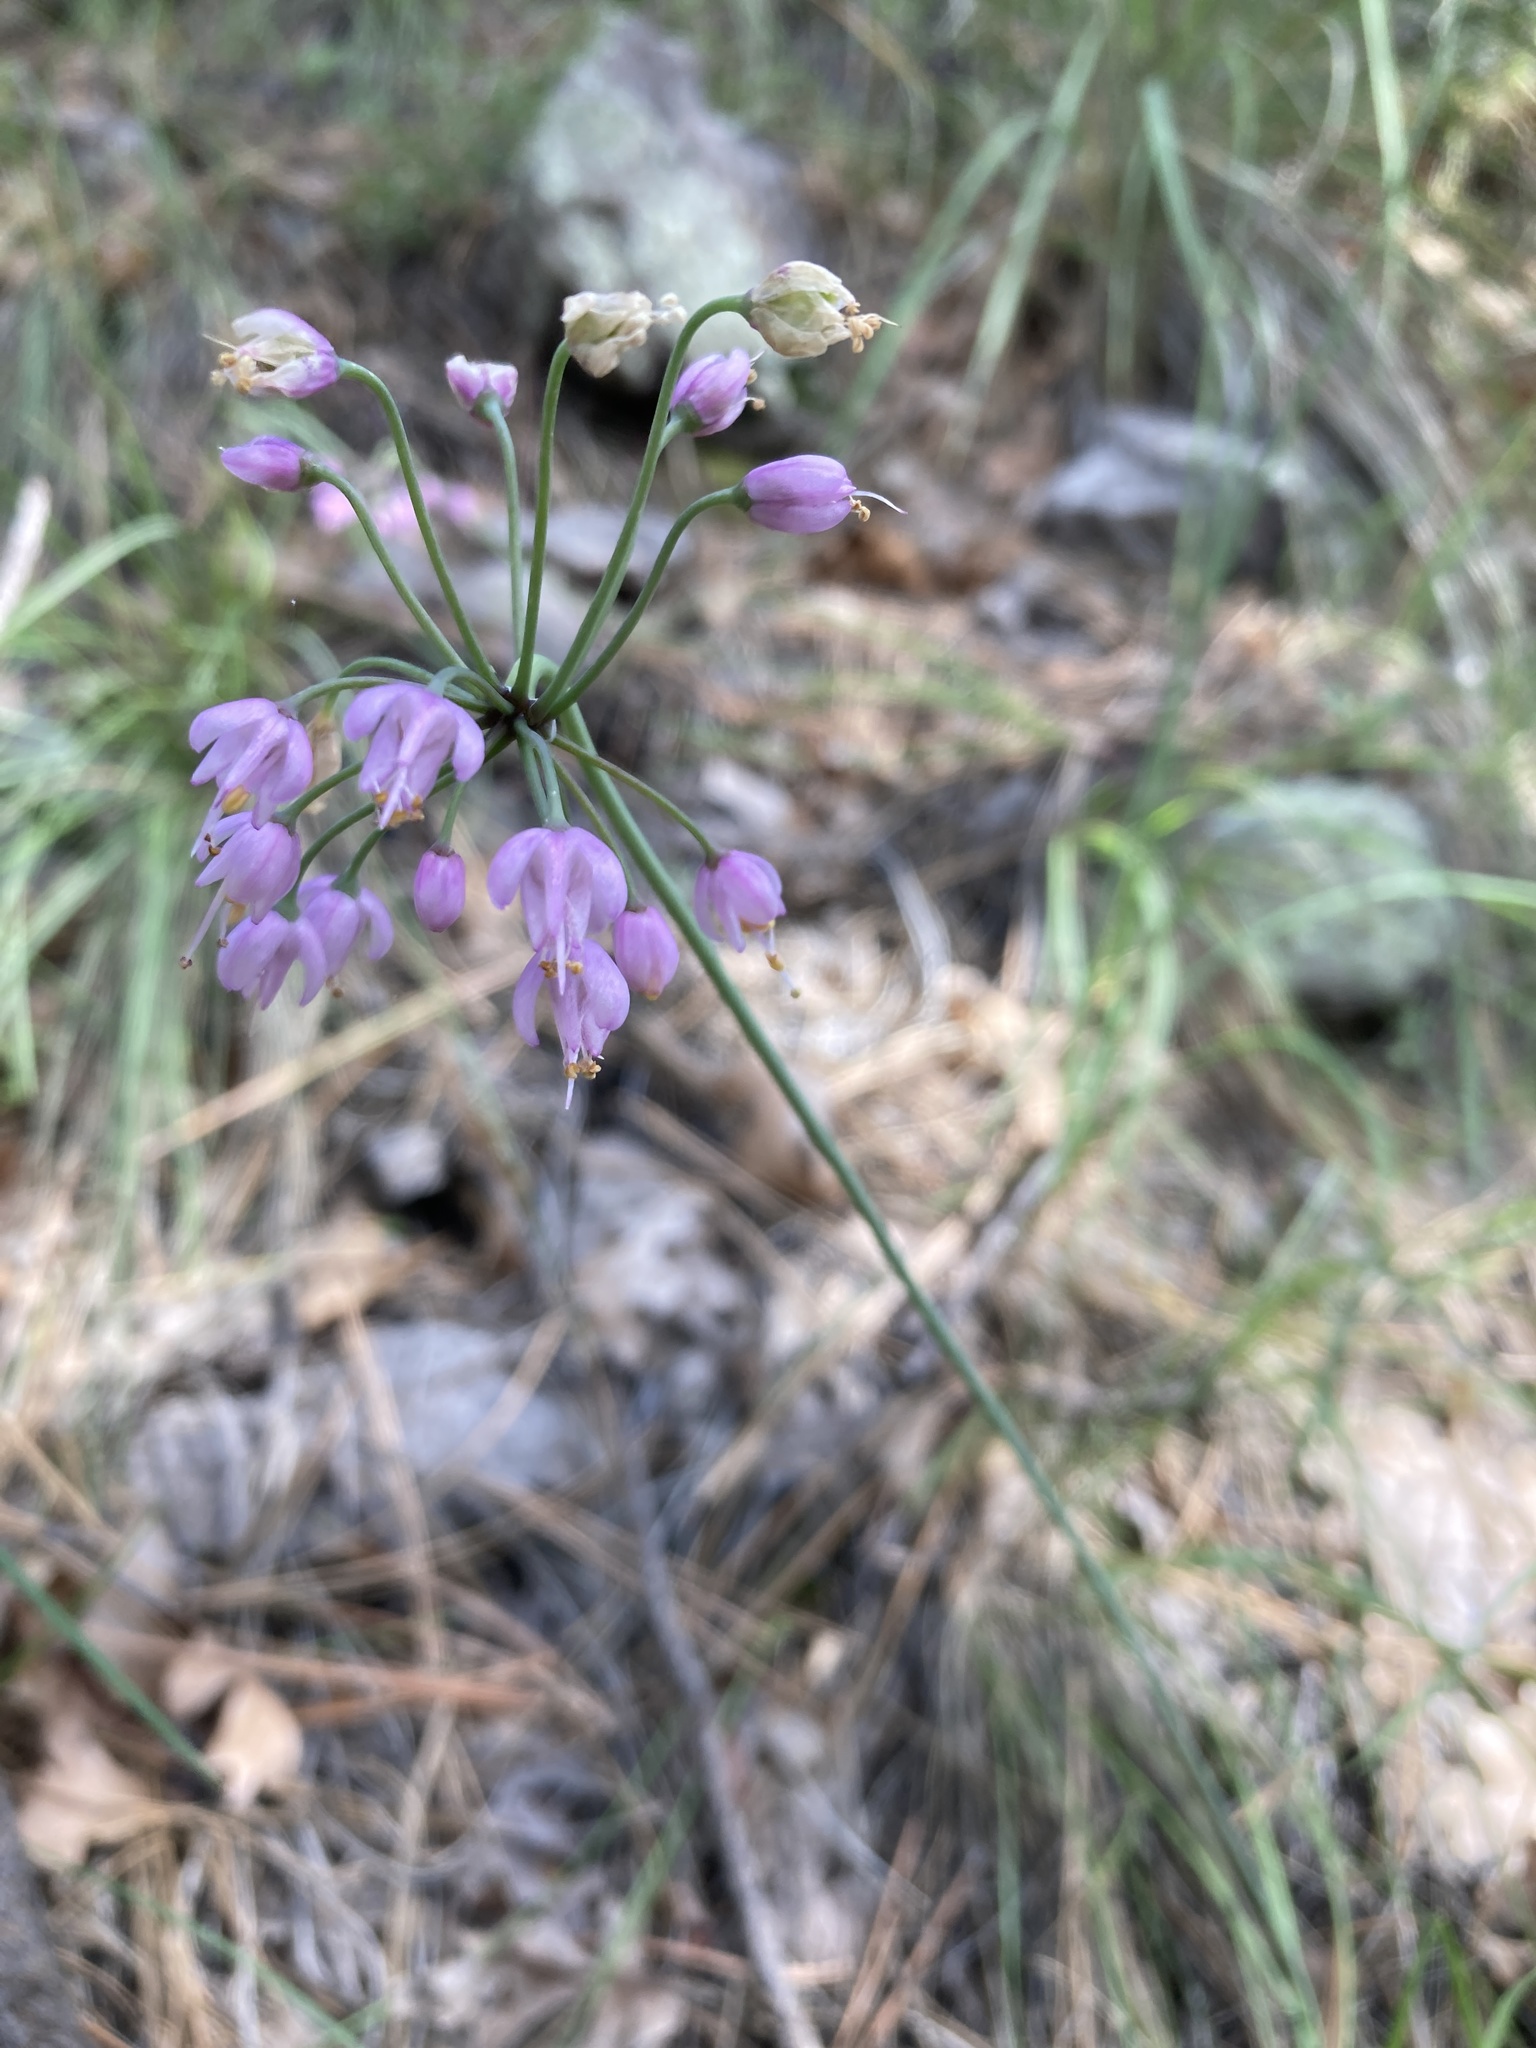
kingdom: Plantae
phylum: Tracheophyta
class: Liliopsida
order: Asparagales
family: Amaryllidaceae
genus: Allium
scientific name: Allium cernuum
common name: Nodding onion
